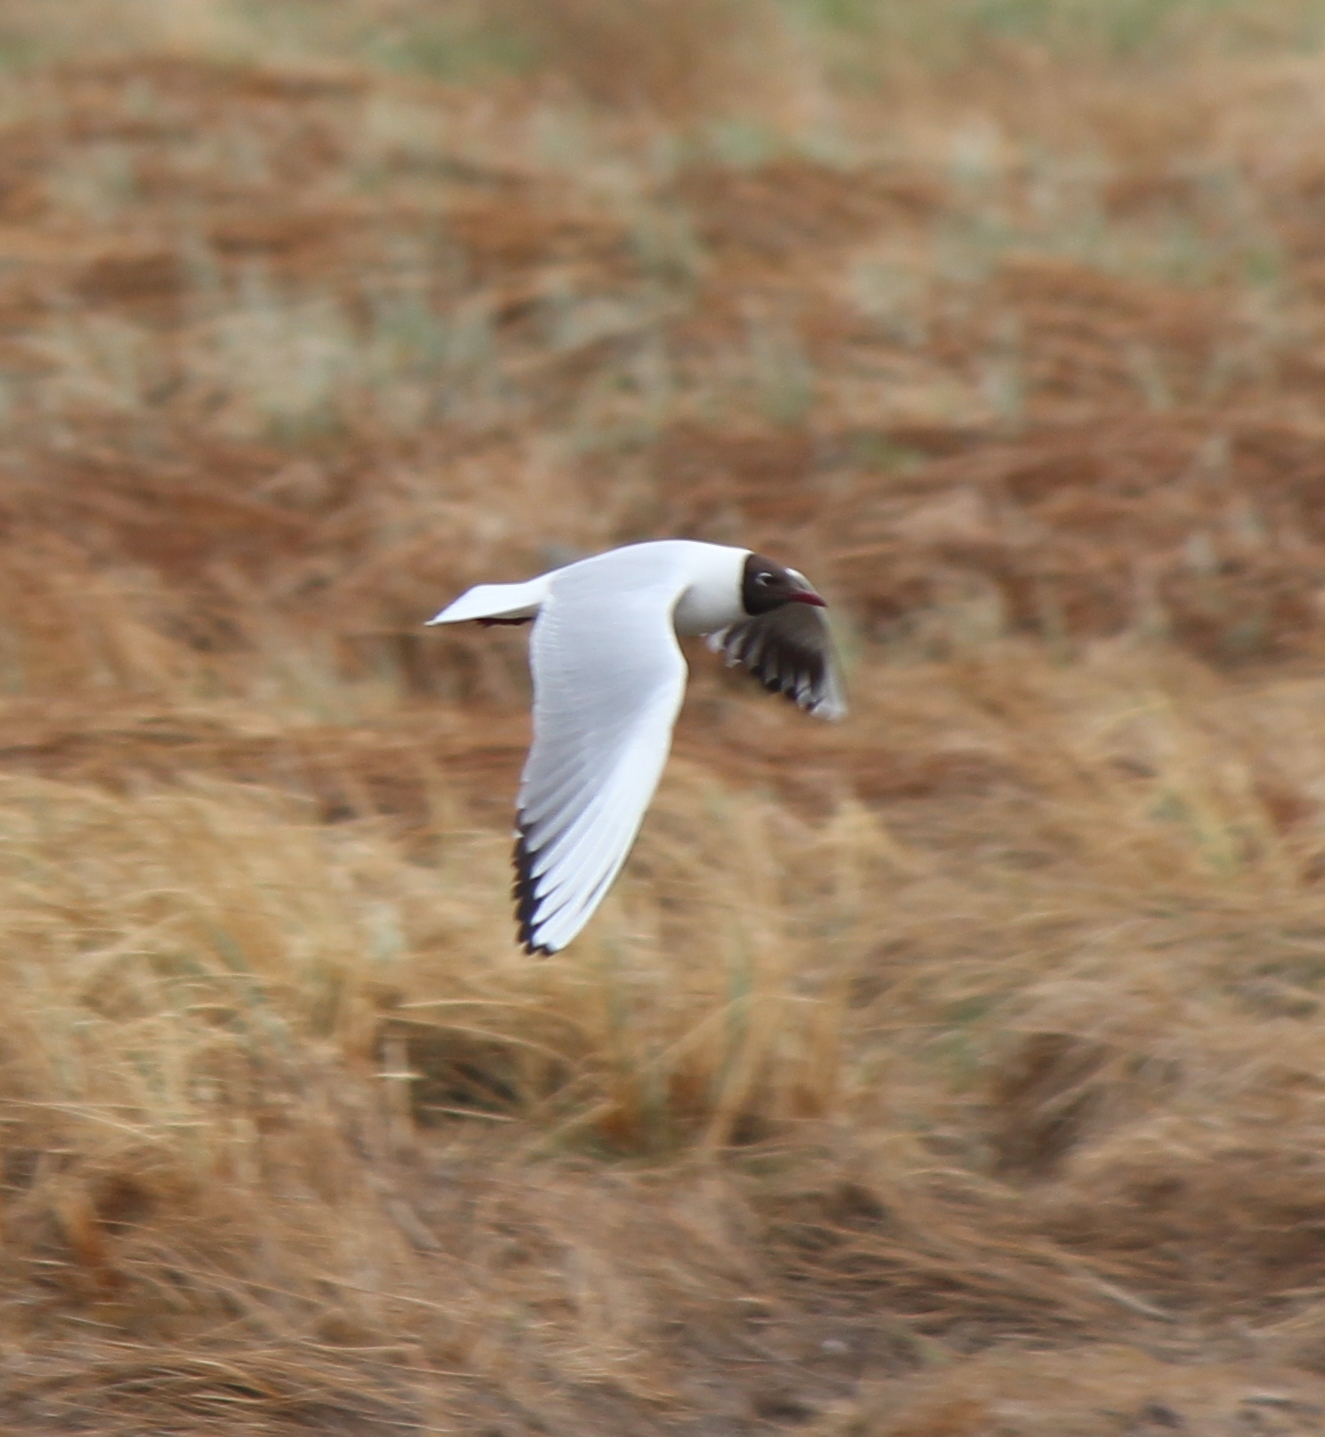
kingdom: Animalia
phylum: Chordata
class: Aves
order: Charadriiformes
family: Laridae
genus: Chroicocephalus
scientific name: Chroicocephalus ridibundus
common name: Black-headed gull
